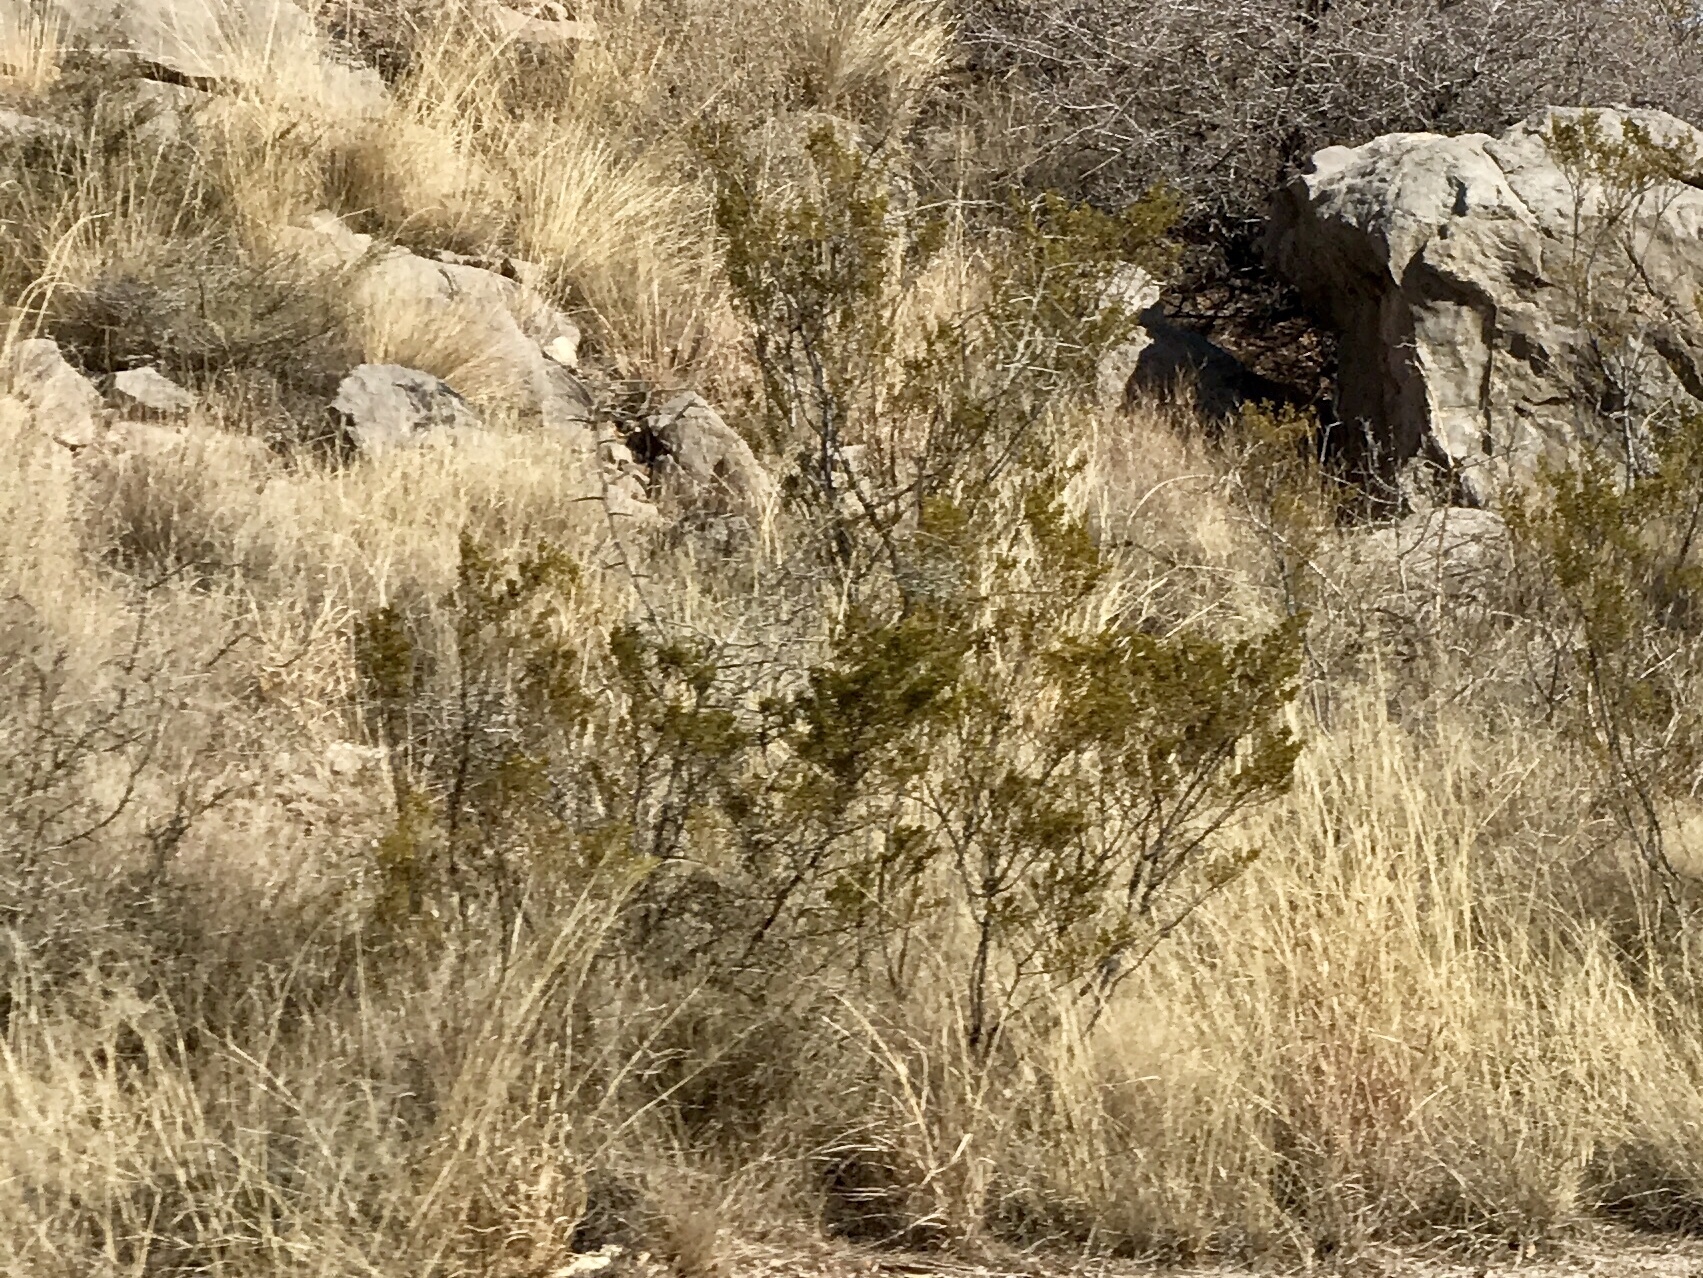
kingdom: Plantae
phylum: Tracheophyta
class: Magnoliopsida
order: Zygophyllales
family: Zygophyllaceae
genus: Larrea
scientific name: Larrea tridentata
